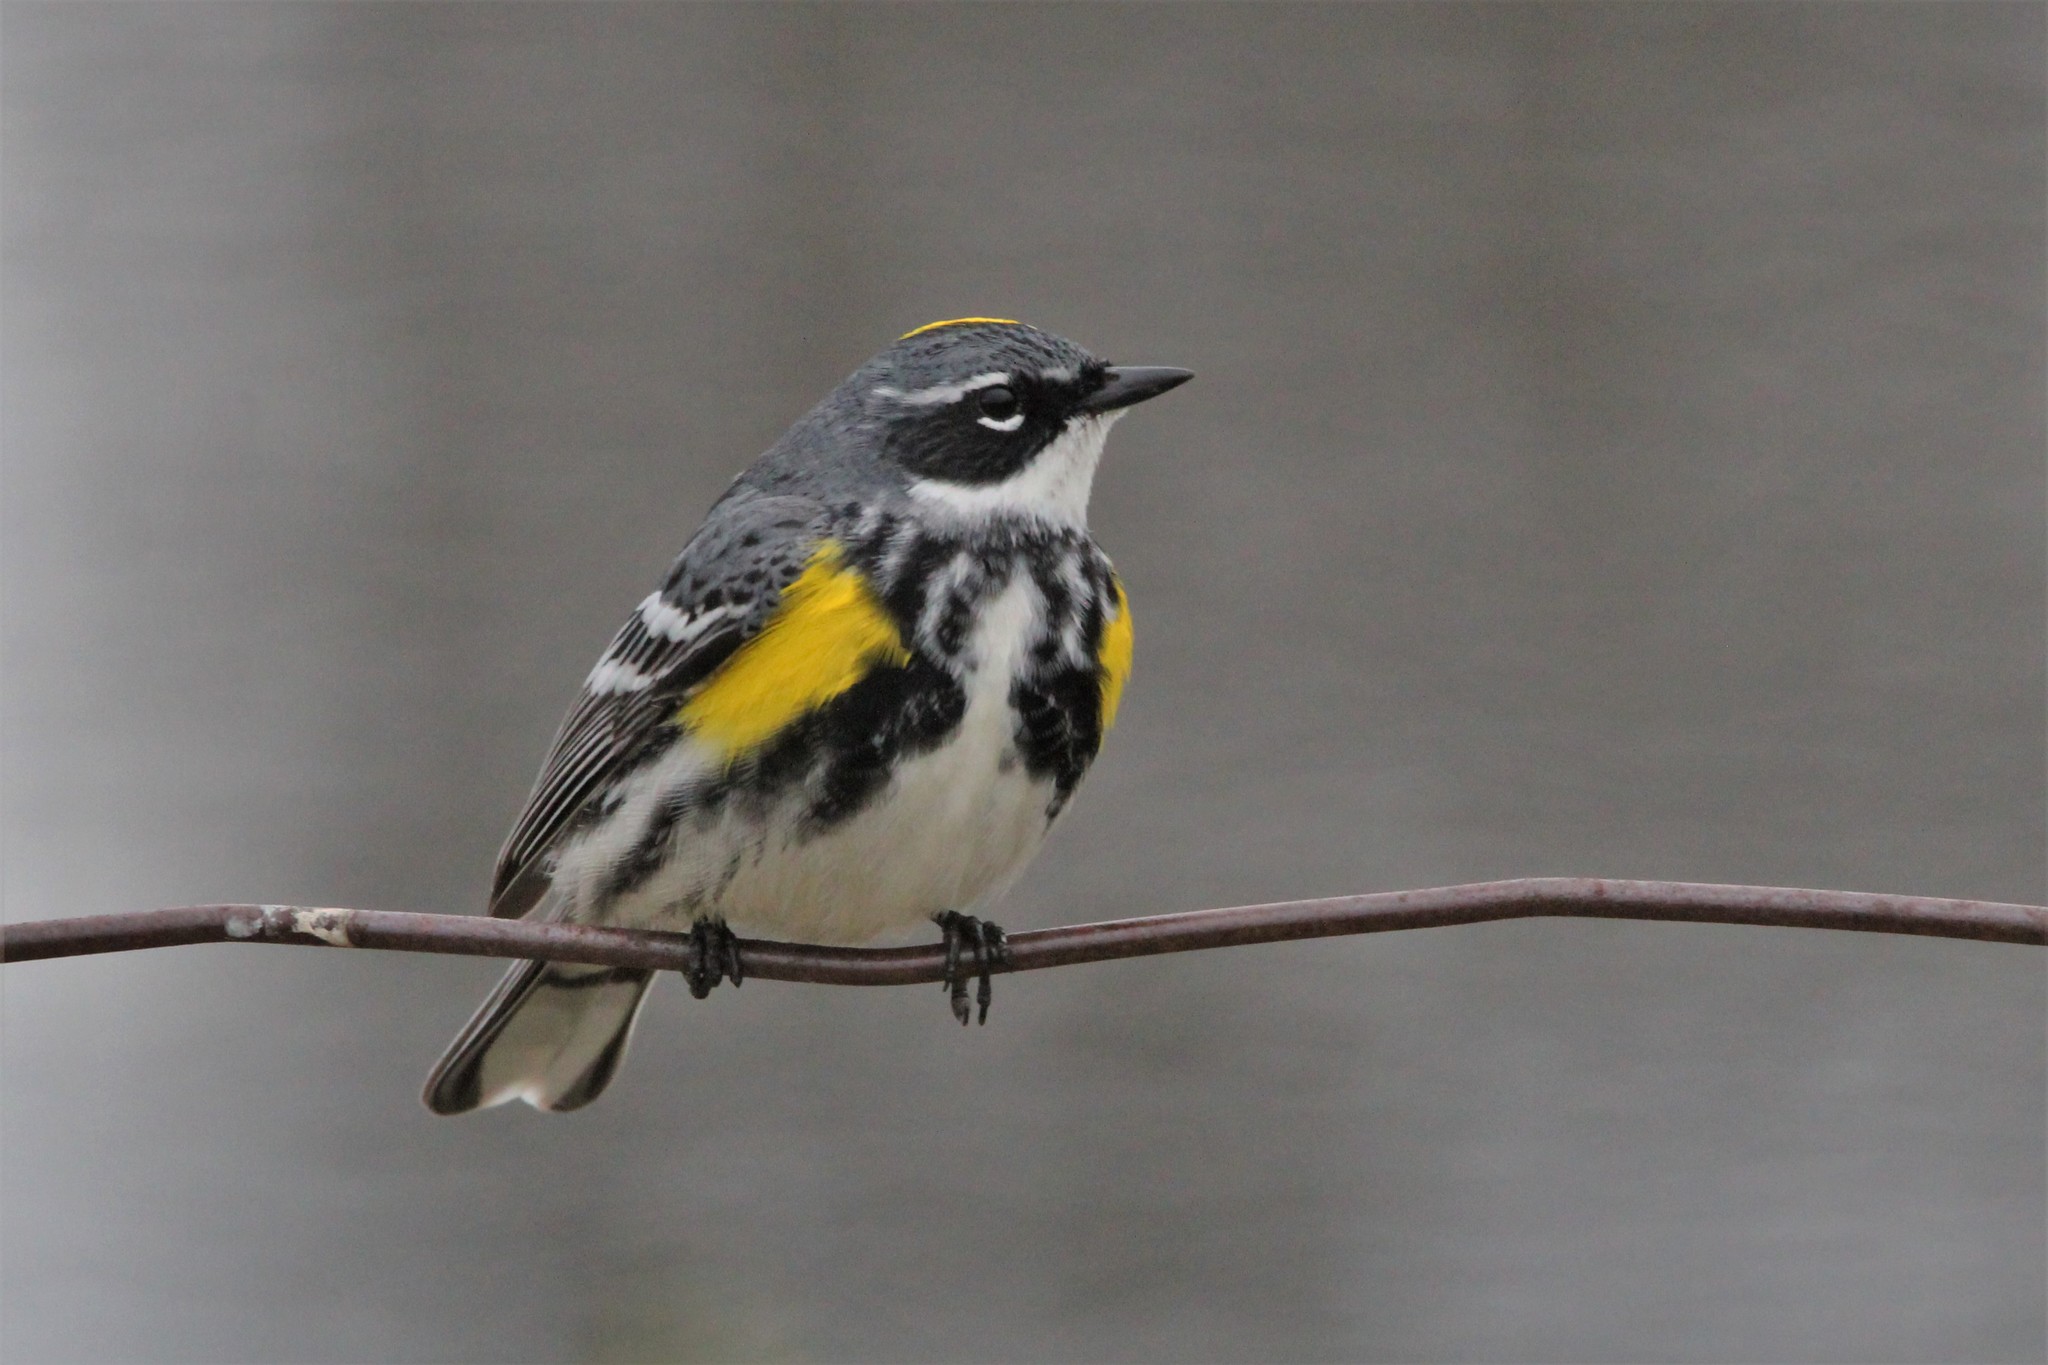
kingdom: Animalia
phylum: Chordata
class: Aves
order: Passeriformes
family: Parulidae
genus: Setophaga
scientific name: Setophaga coronata
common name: Myrtle warbler
